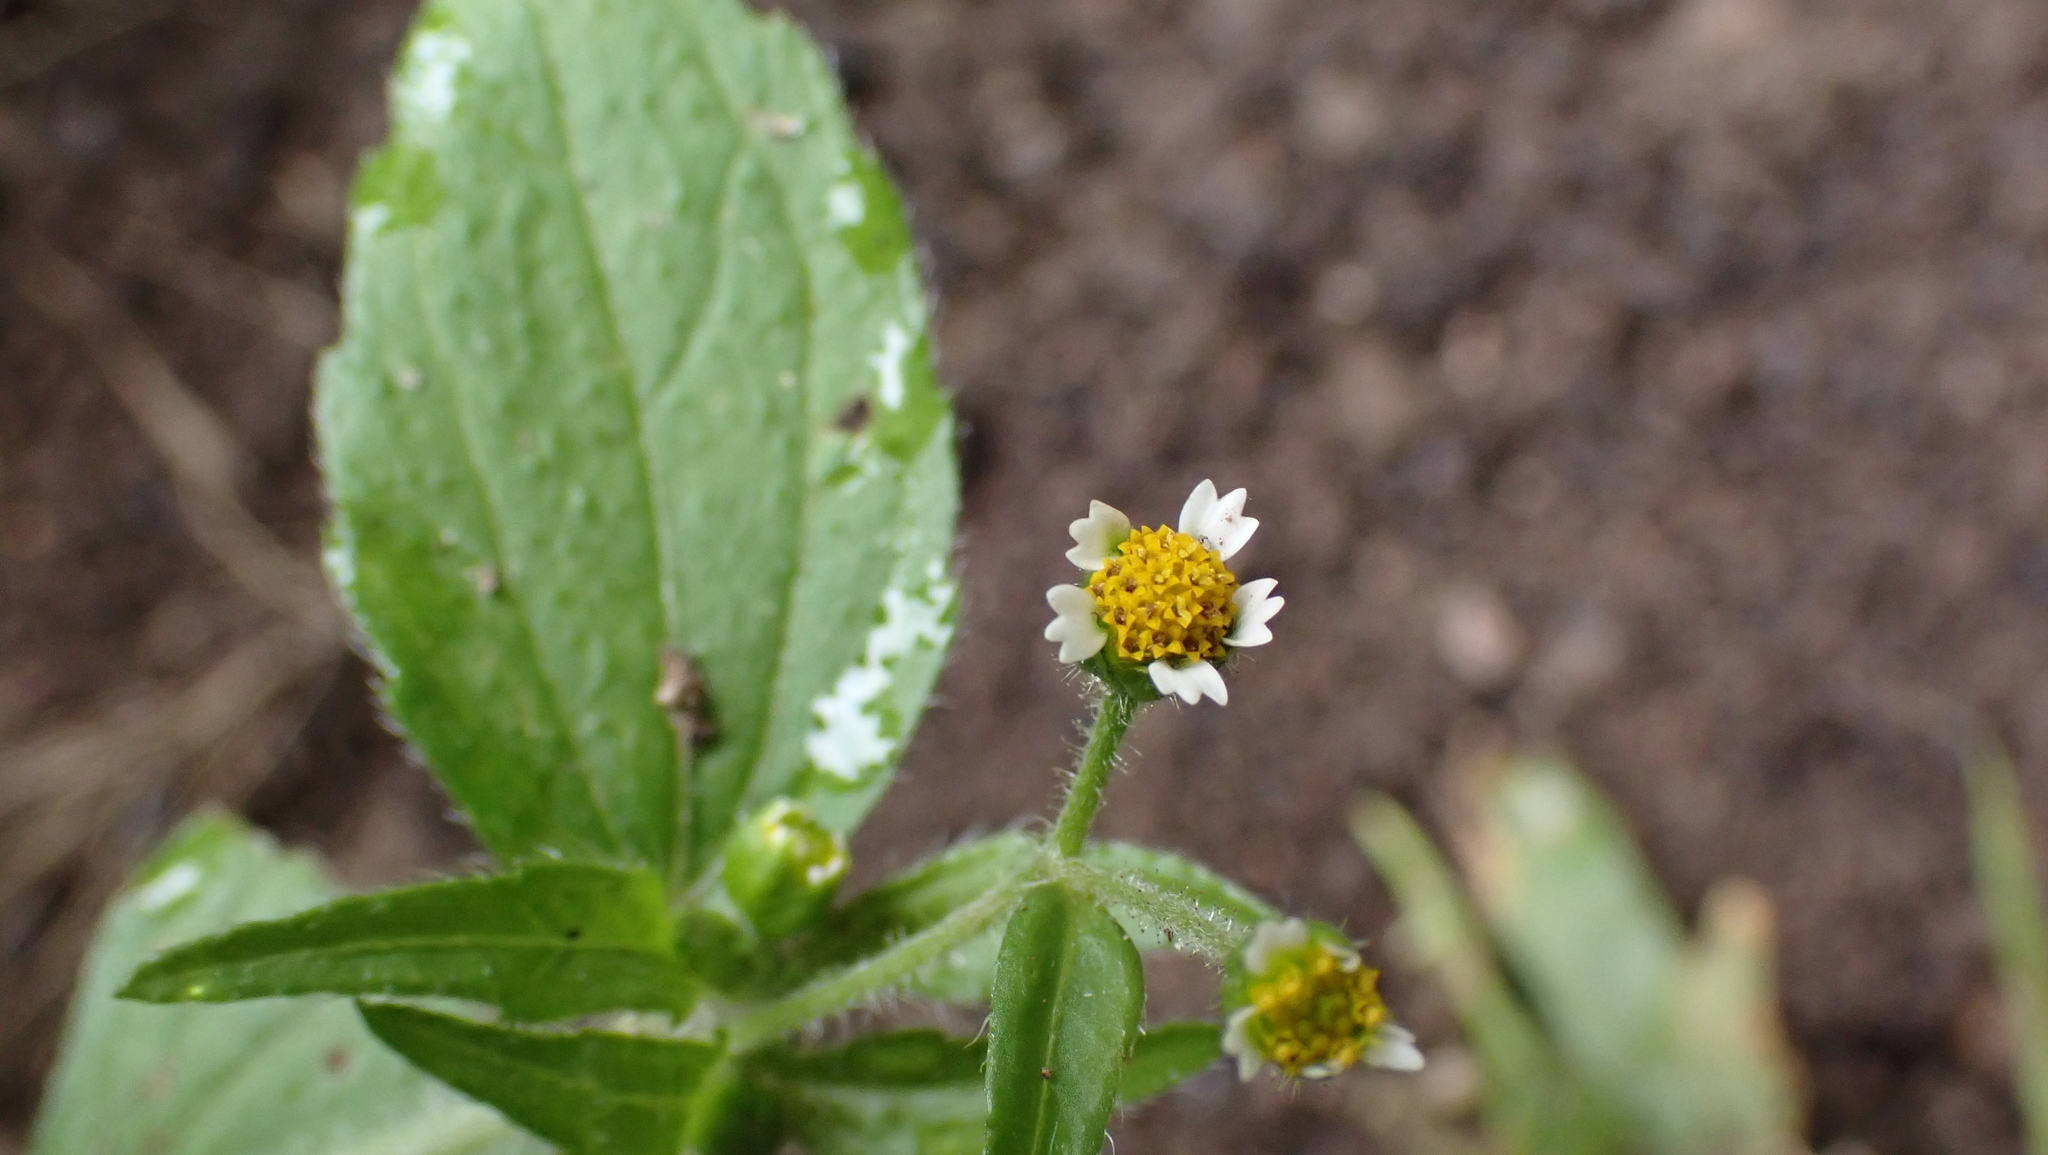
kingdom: Plantae
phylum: Tracheophyta
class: Magnoliopsida
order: Asterales
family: Asteraceae
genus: Galinsoga
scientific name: Galinsoga quadriradiata
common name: Shaggy soldier
